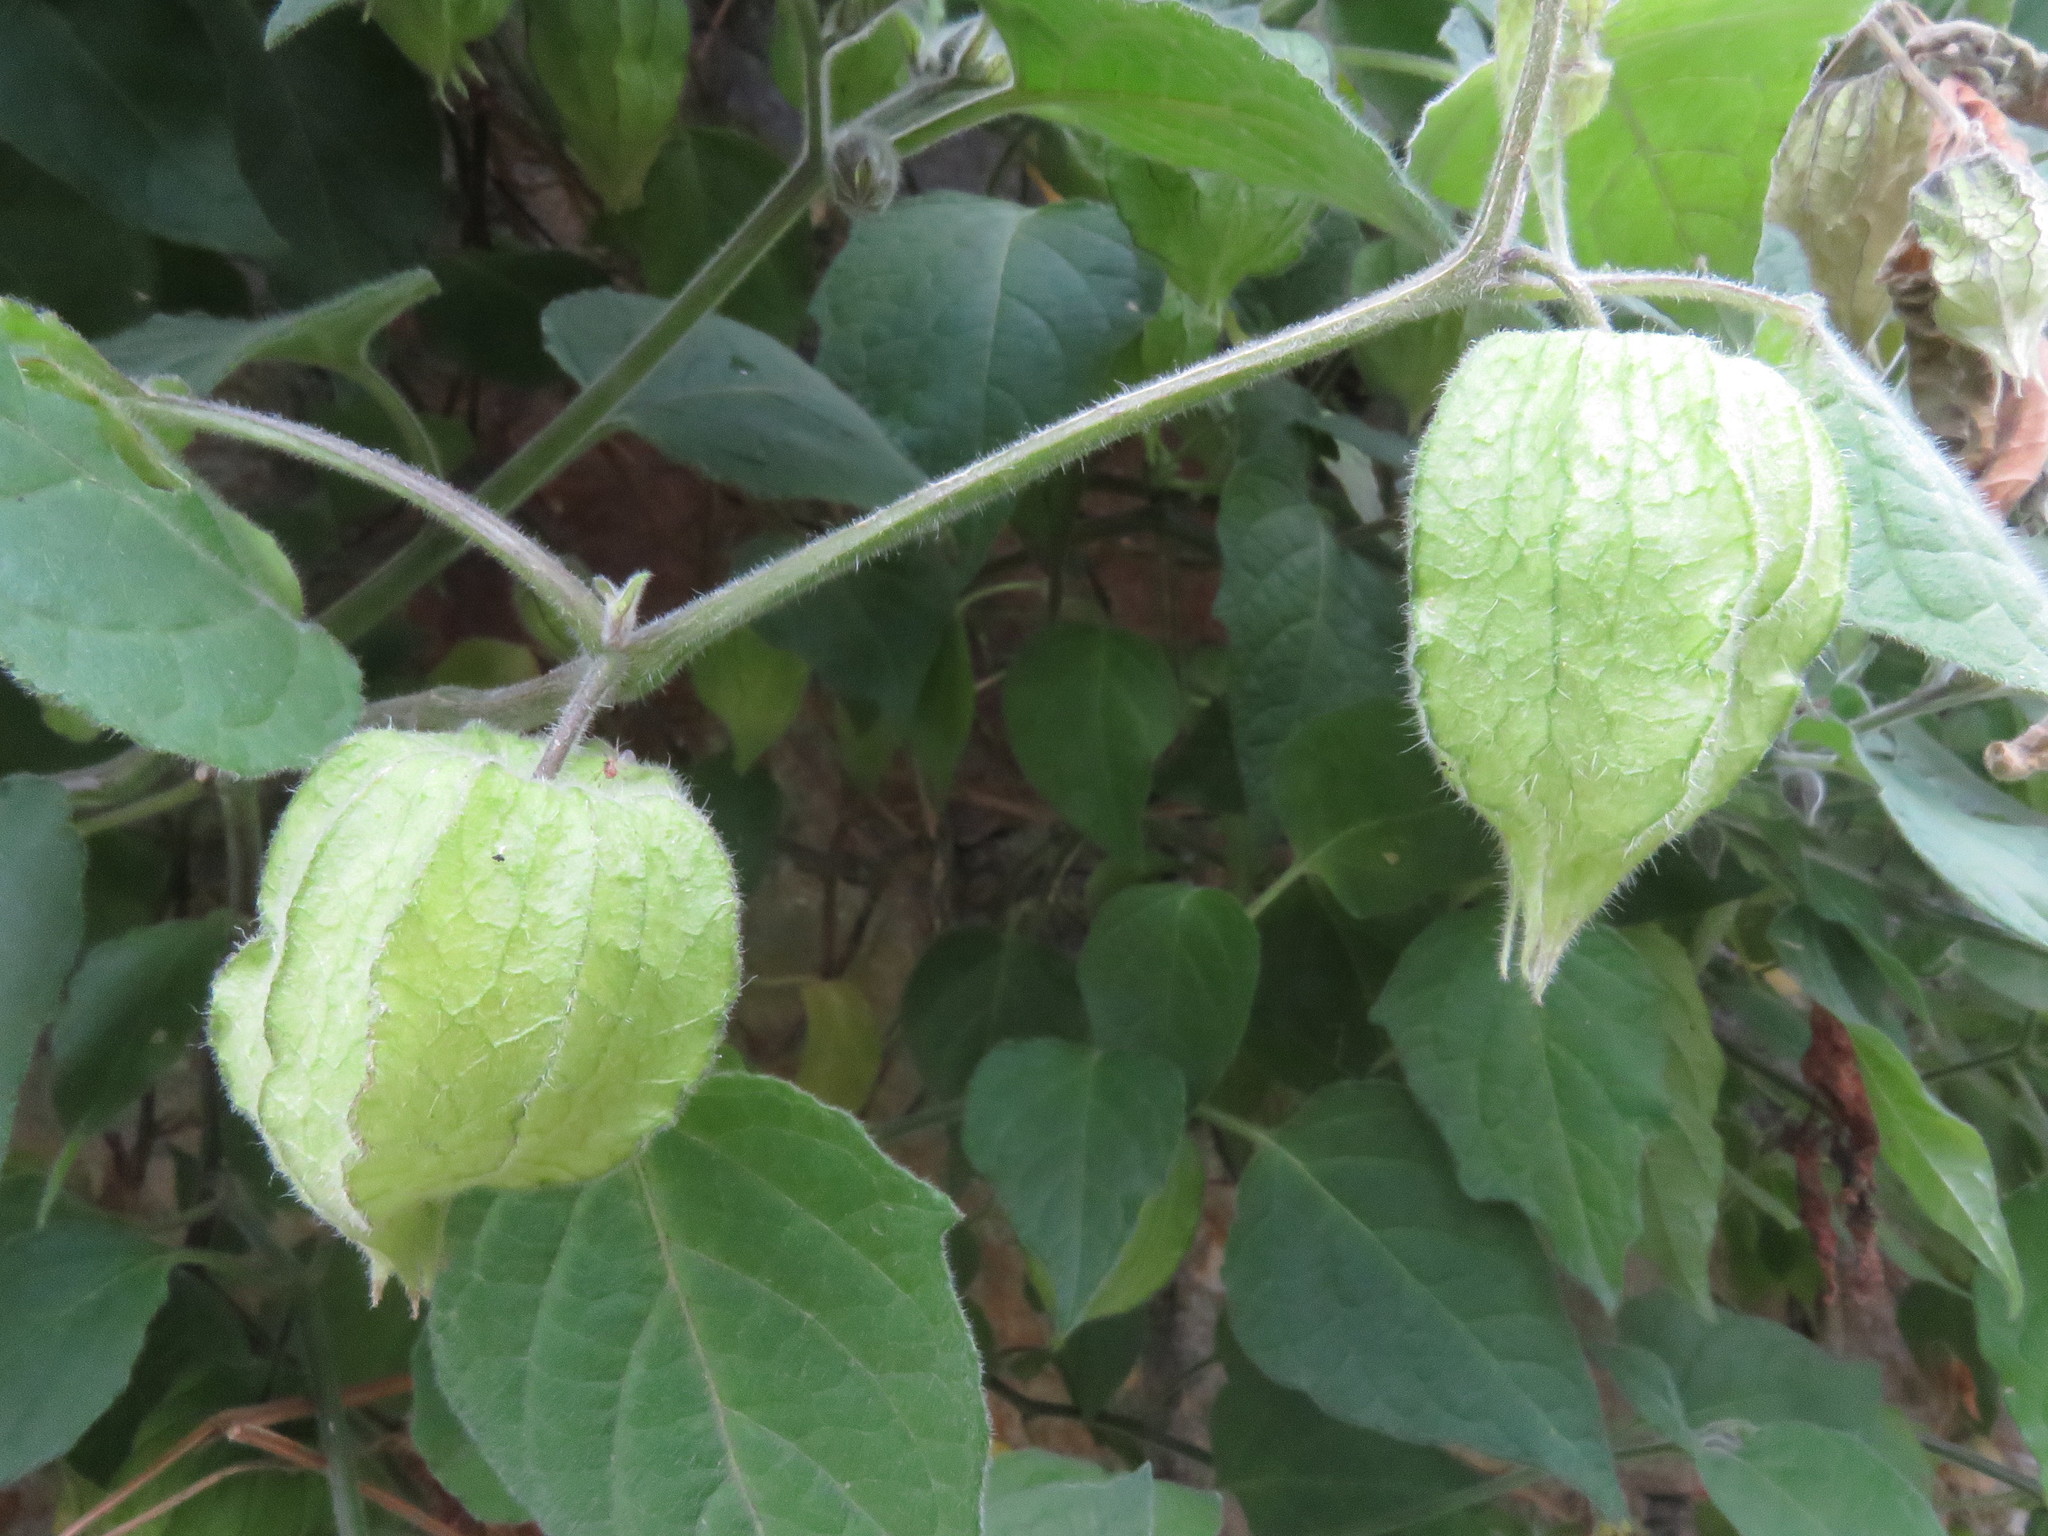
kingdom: Plantae
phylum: Tracheophyta
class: Magnoliopsida
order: Solanales
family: Solanaceae
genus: Physalis
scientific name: Physalis peruviana
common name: Cape-gooseberry
